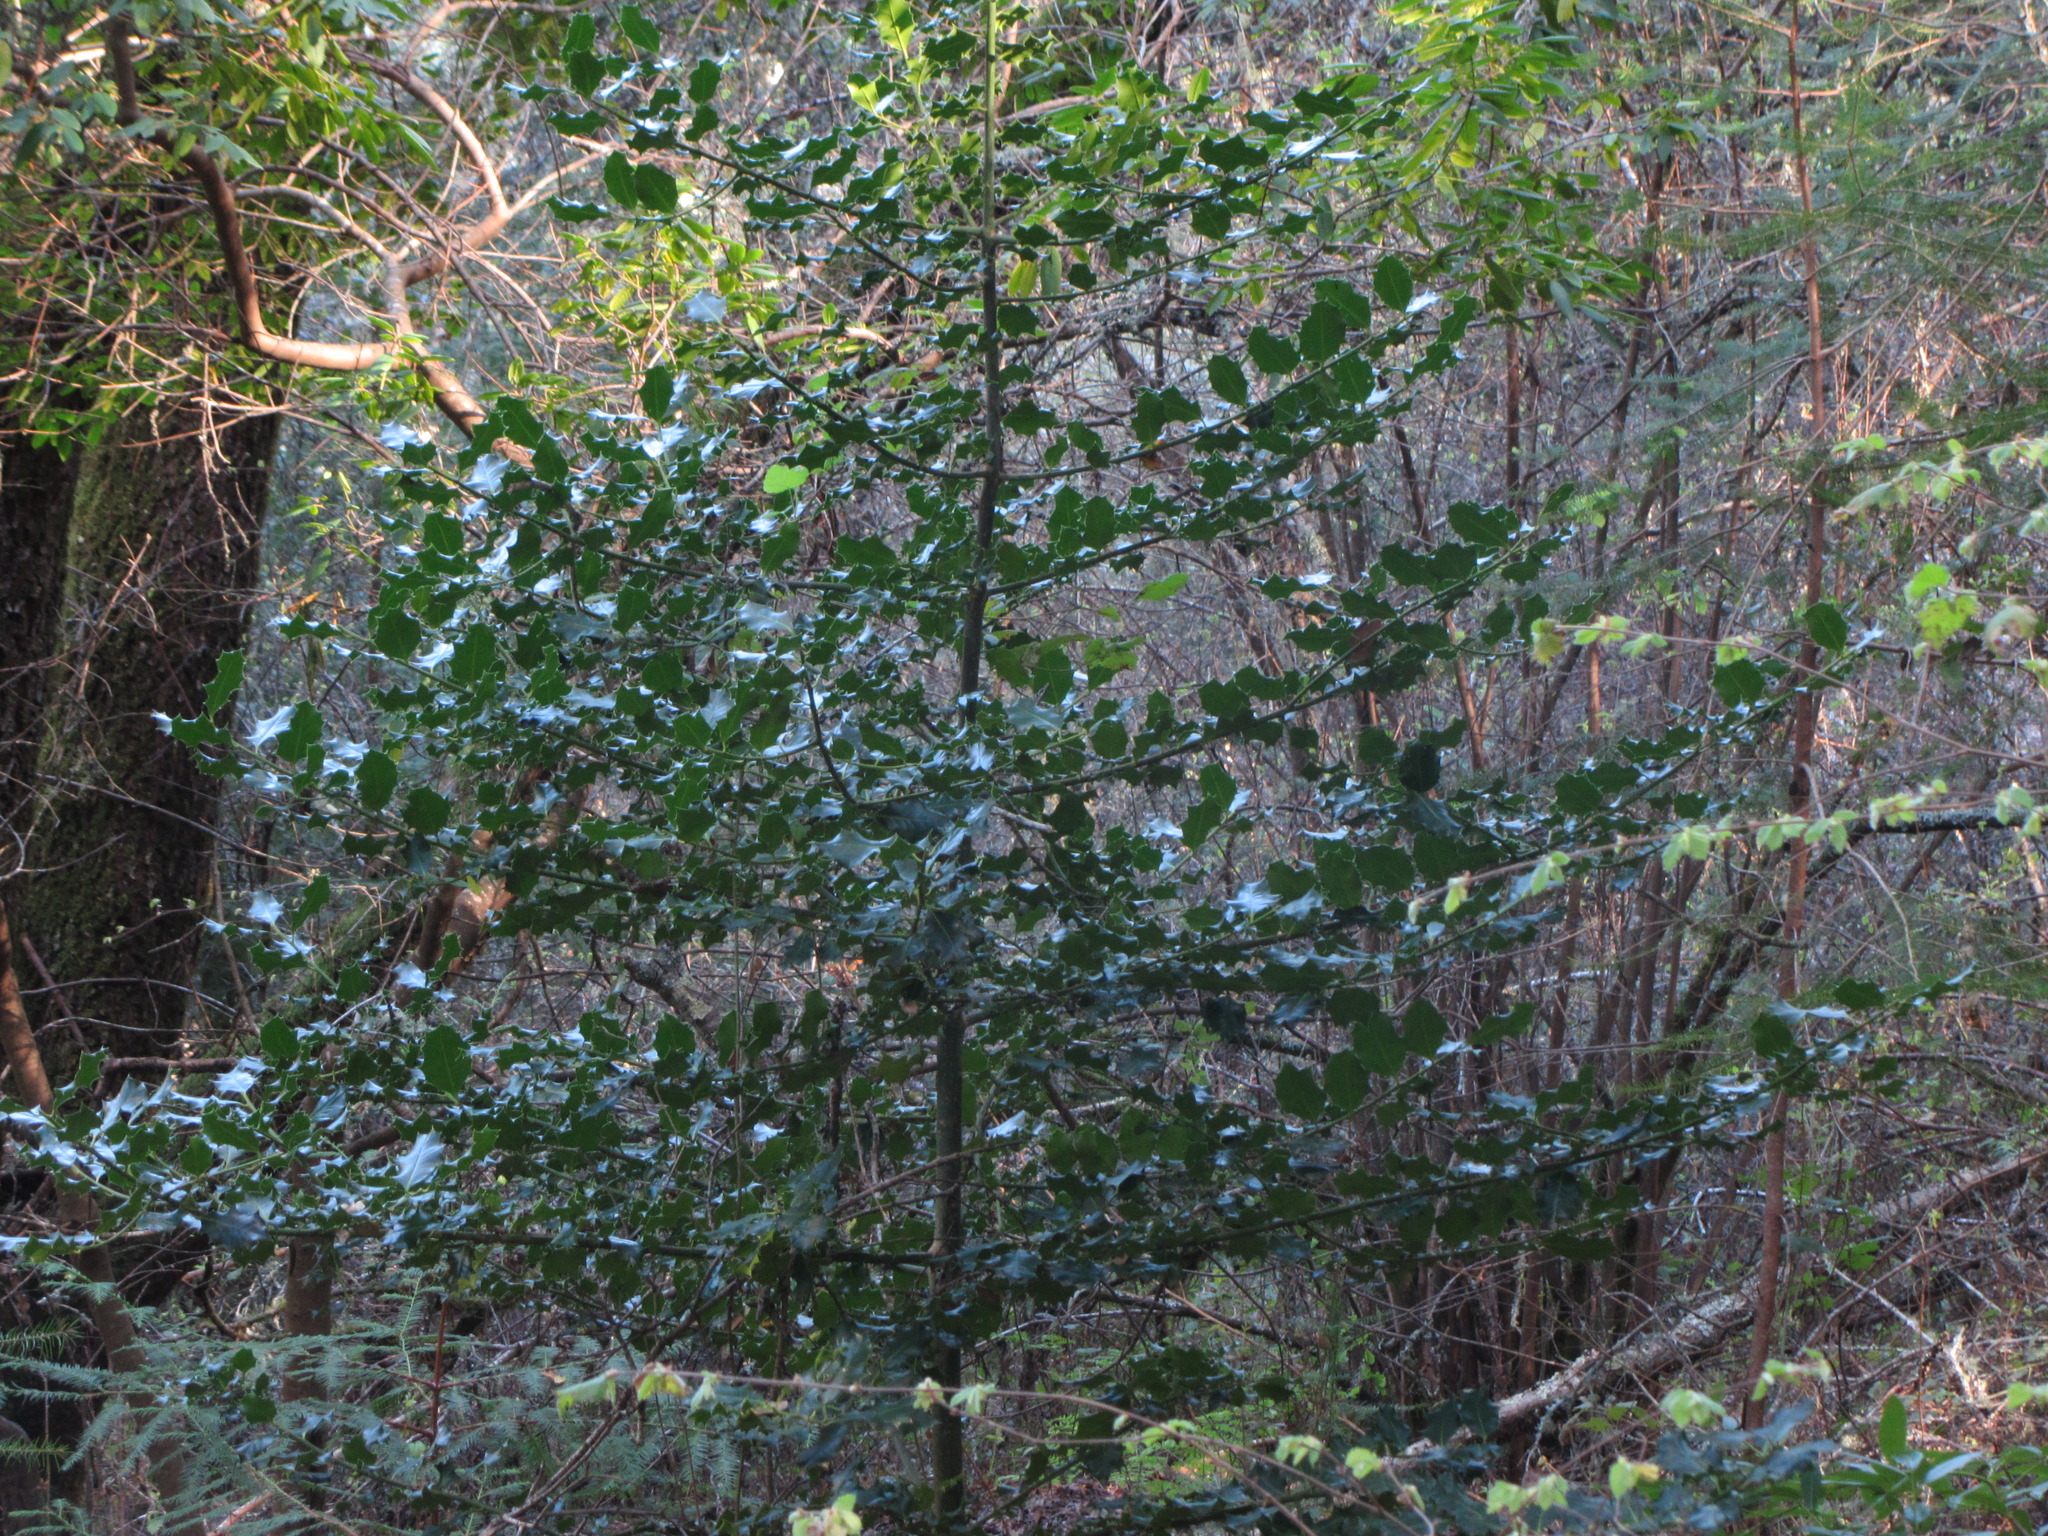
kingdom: Plantae
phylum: Tracheophyta
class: Magnoliopsida
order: Aquifoliales
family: Aquifoliaceae
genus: Ilex
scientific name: Ilex aquifolium
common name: English holly
